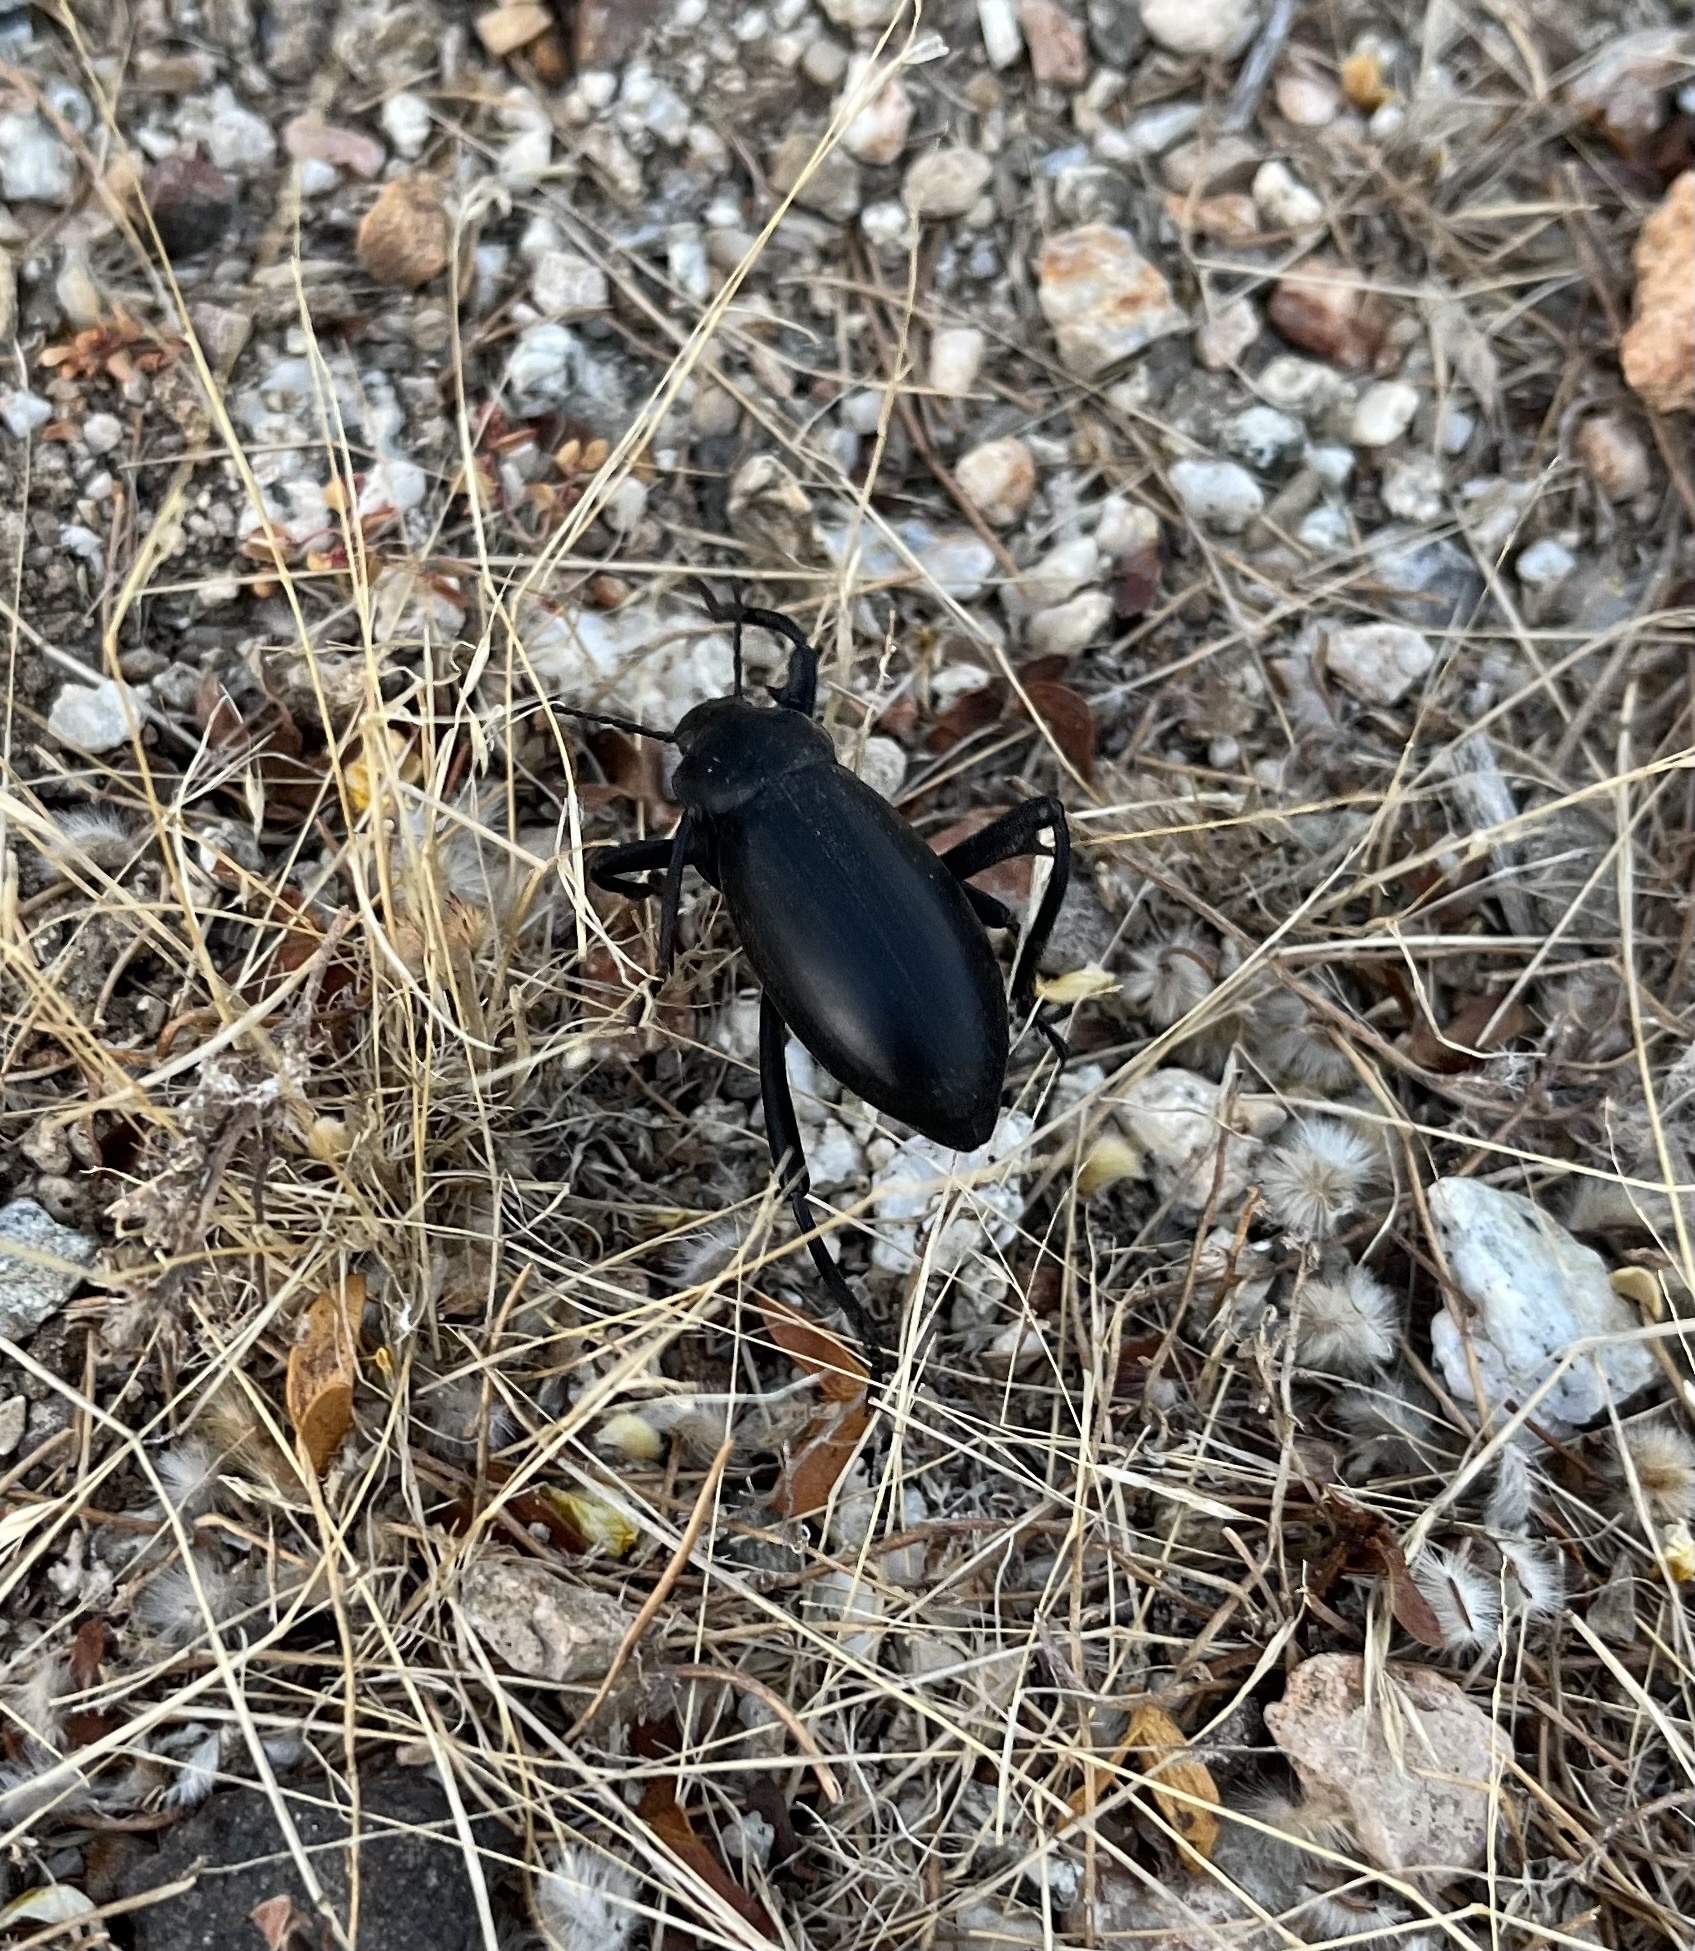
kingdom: Animalia
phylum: Arthropoda
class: Insecta
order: Coleoptera
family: Tenebrionidae
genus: Eleodes
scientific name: Eleodes armata
